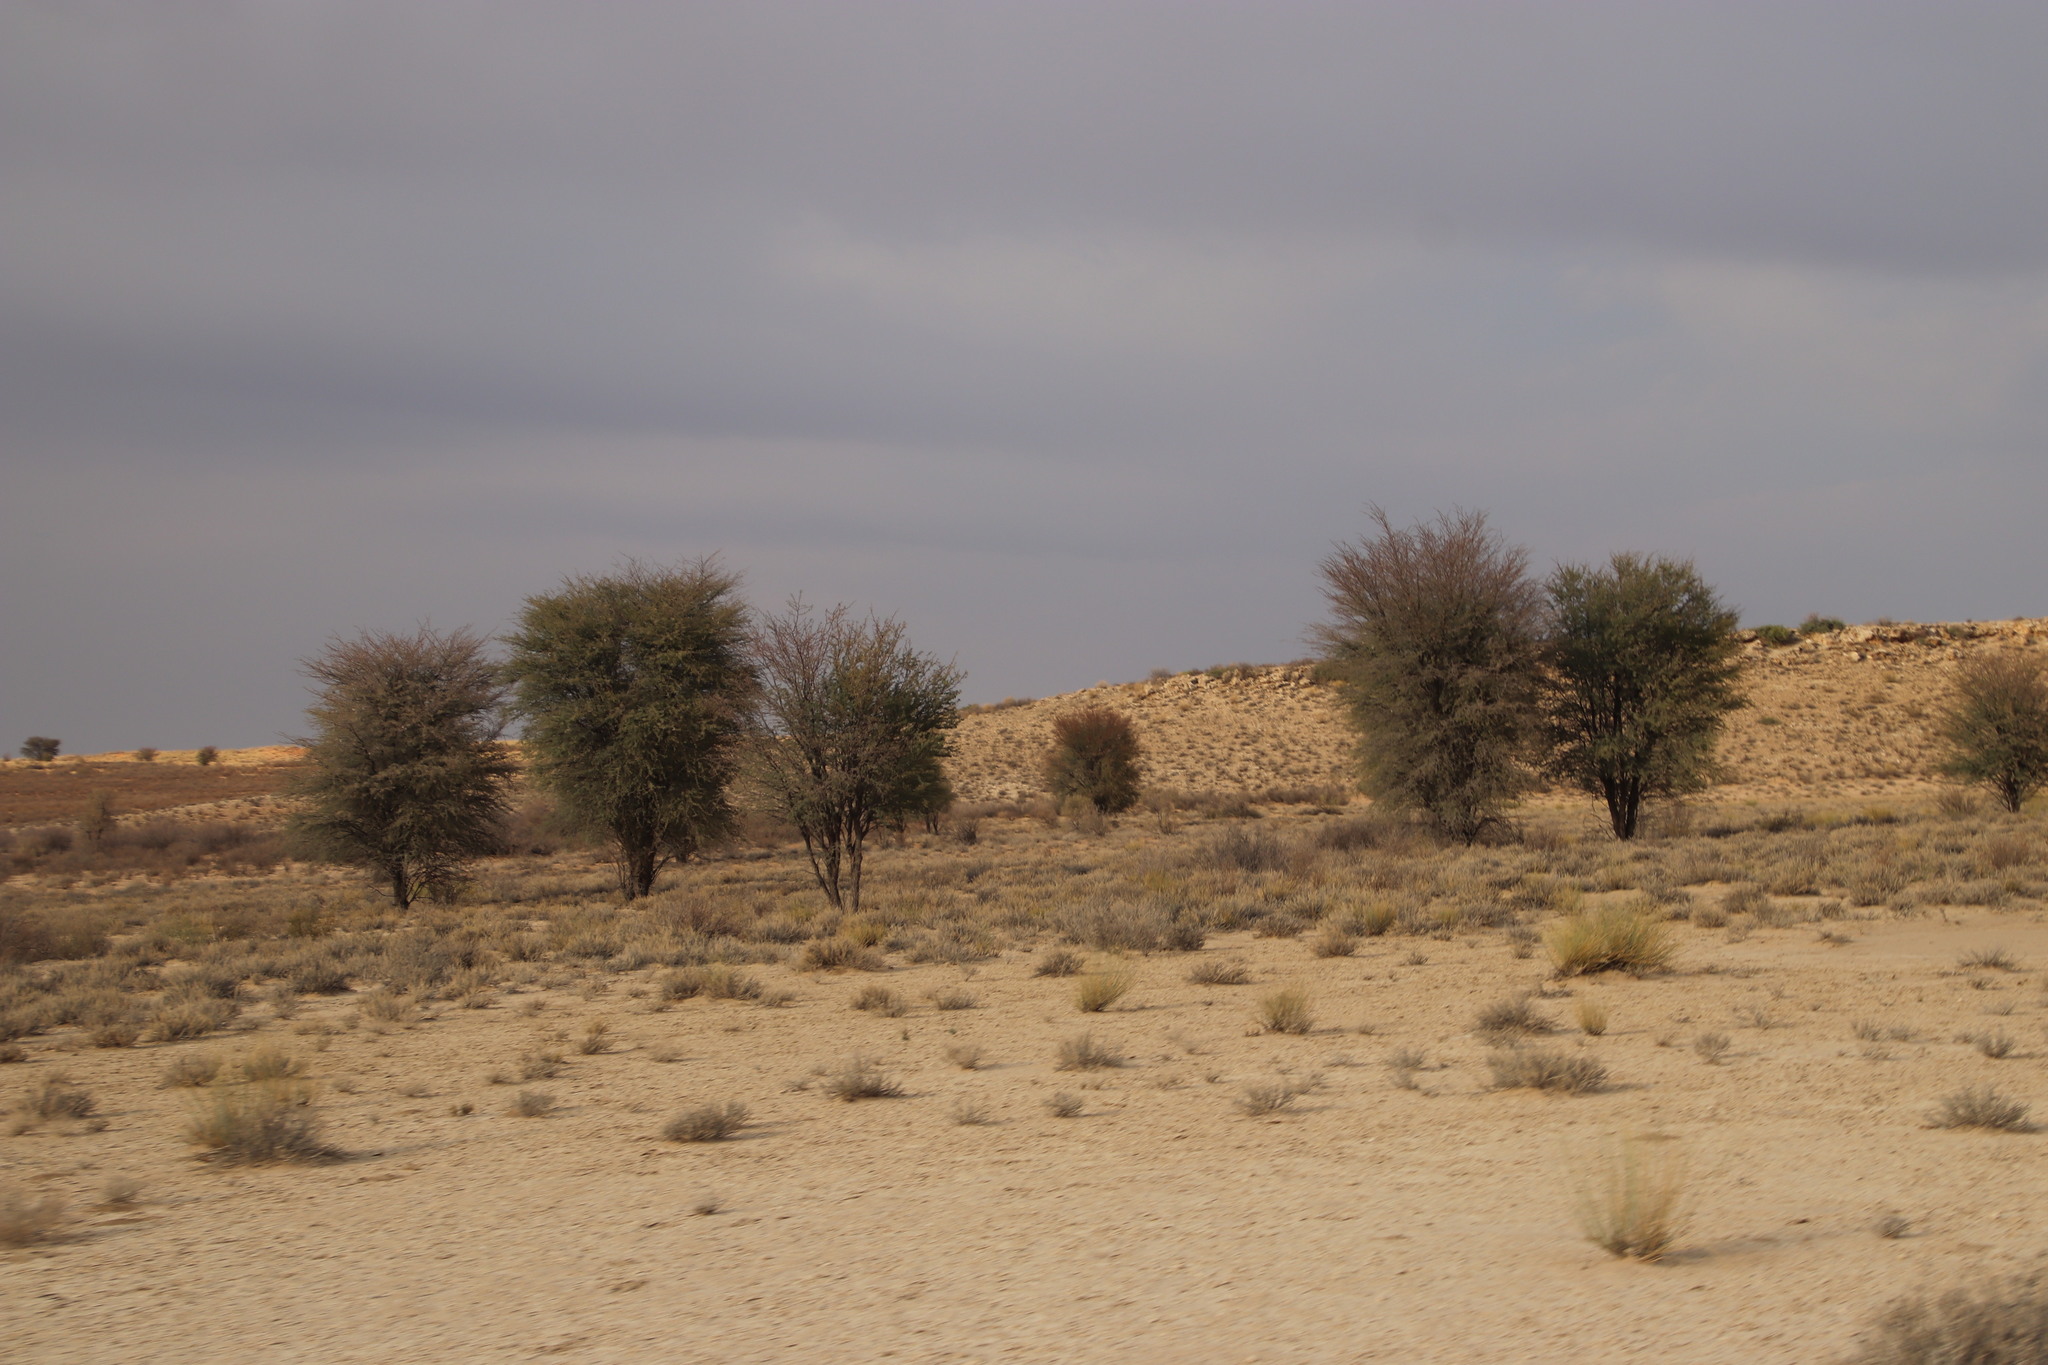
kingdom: Plantae
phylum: Tracheophyta
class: Magnoliopsida
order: Fabales
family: Fabaceae
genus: Vachellia
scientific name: Vachellia erioloba
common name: Camel thorn
